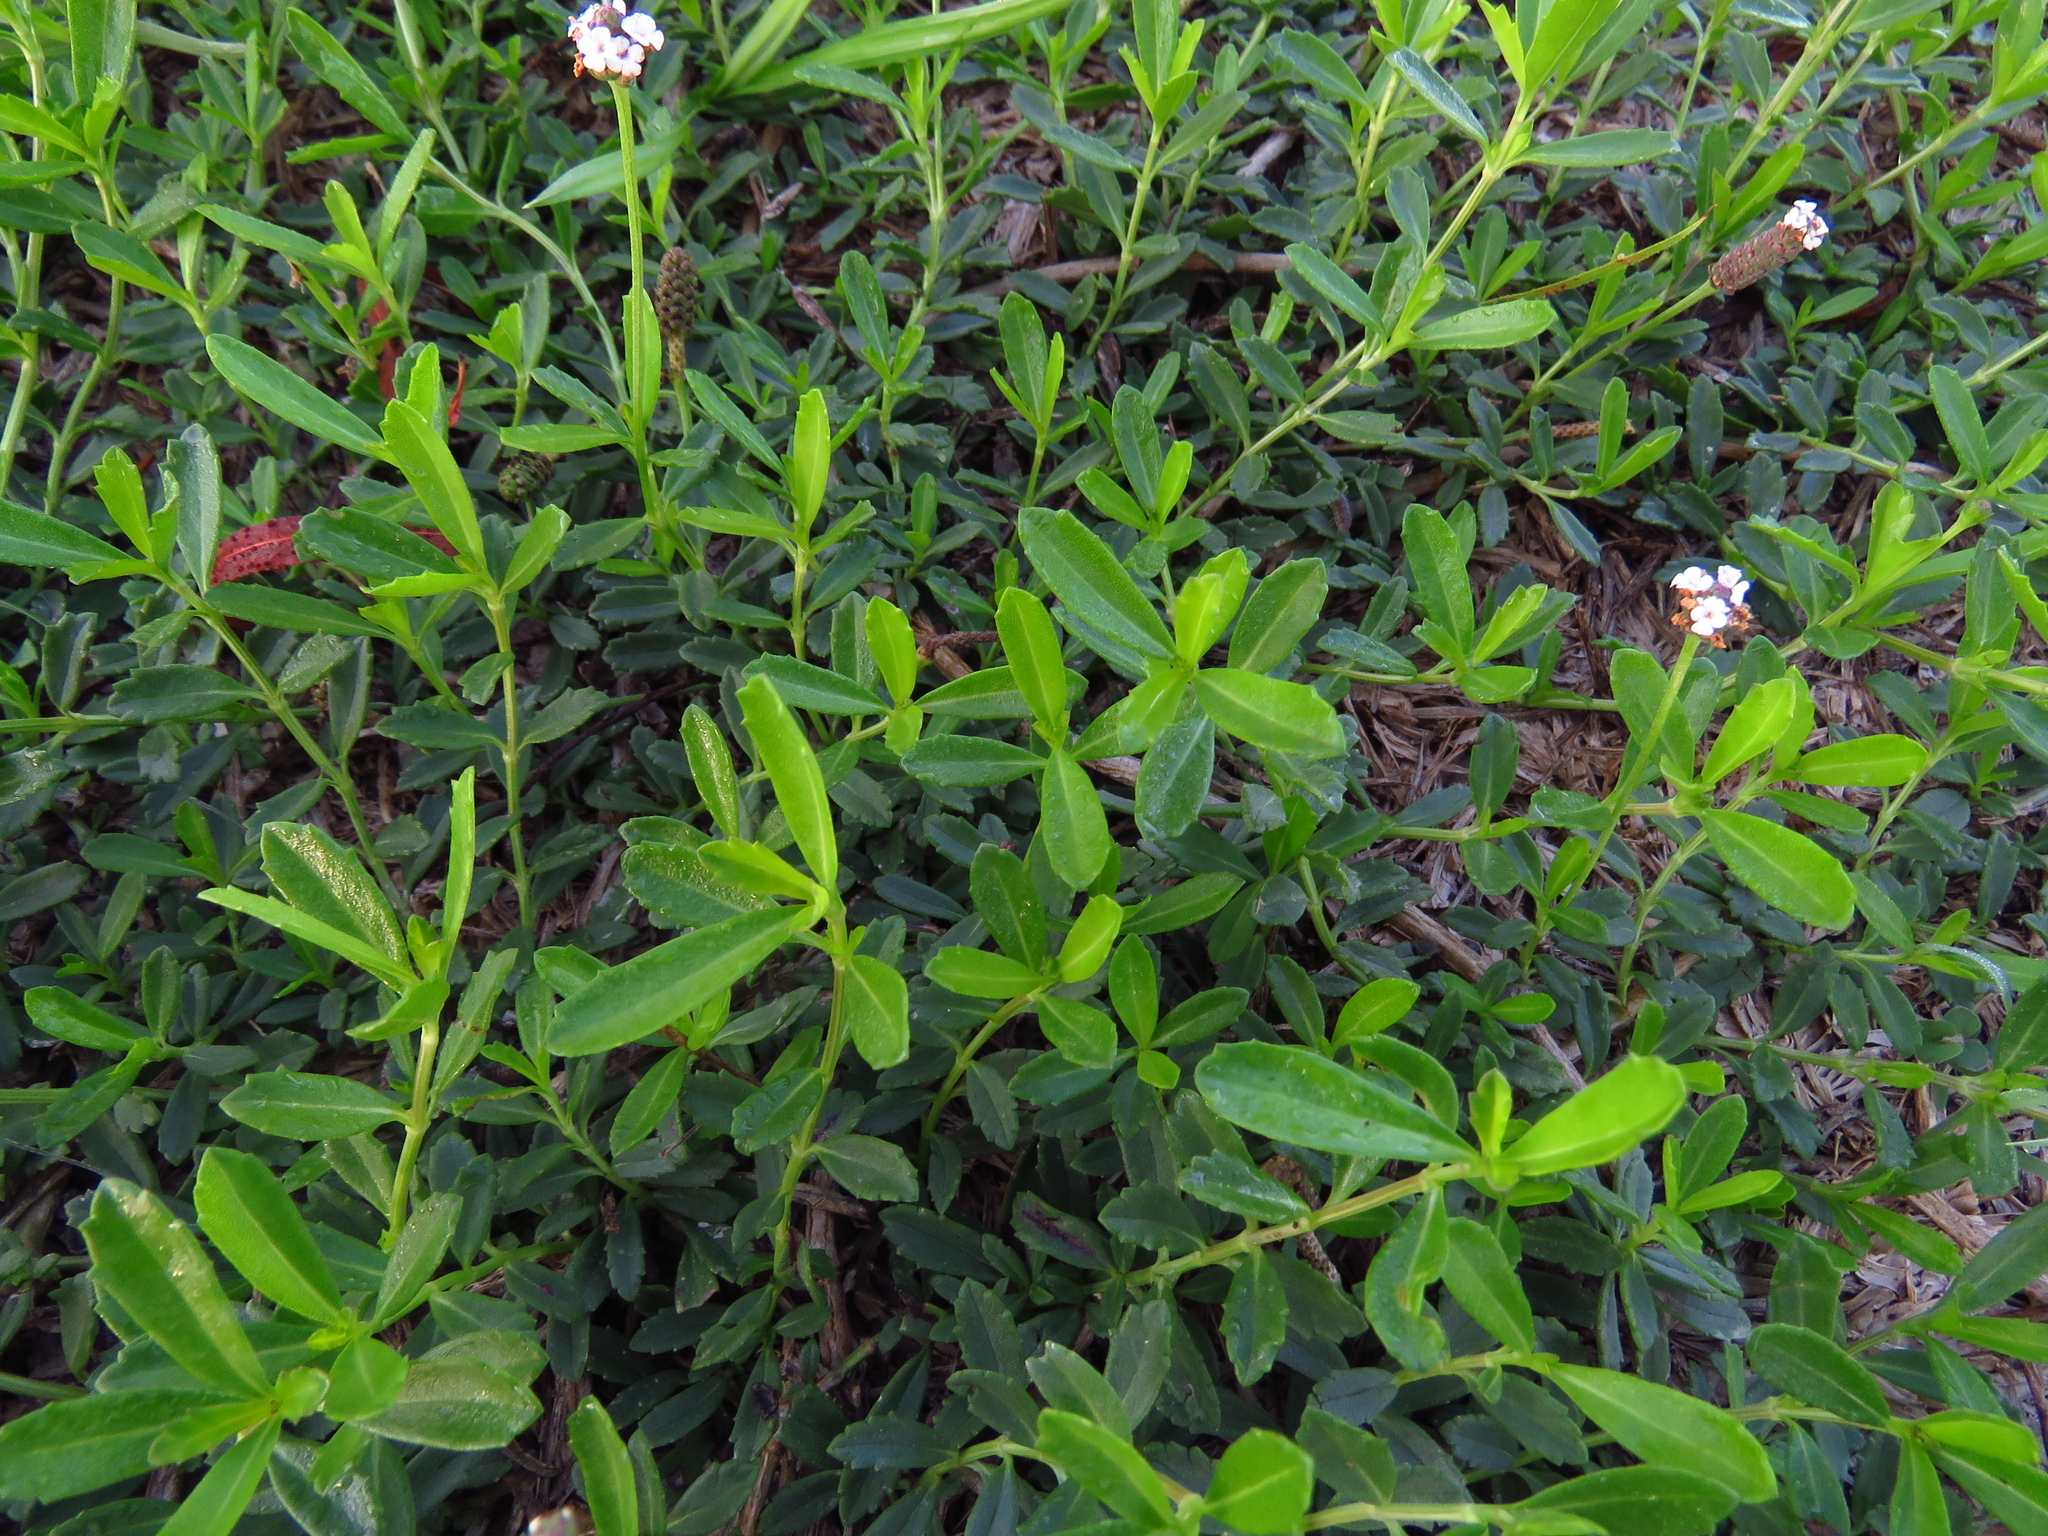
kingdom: Plantae
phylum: Tracheophyta
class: Magnoliopsida
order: Lamiales
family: Verbenaceae
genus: Phyla
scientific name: Phyla nodiflora
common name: Frogfruit
